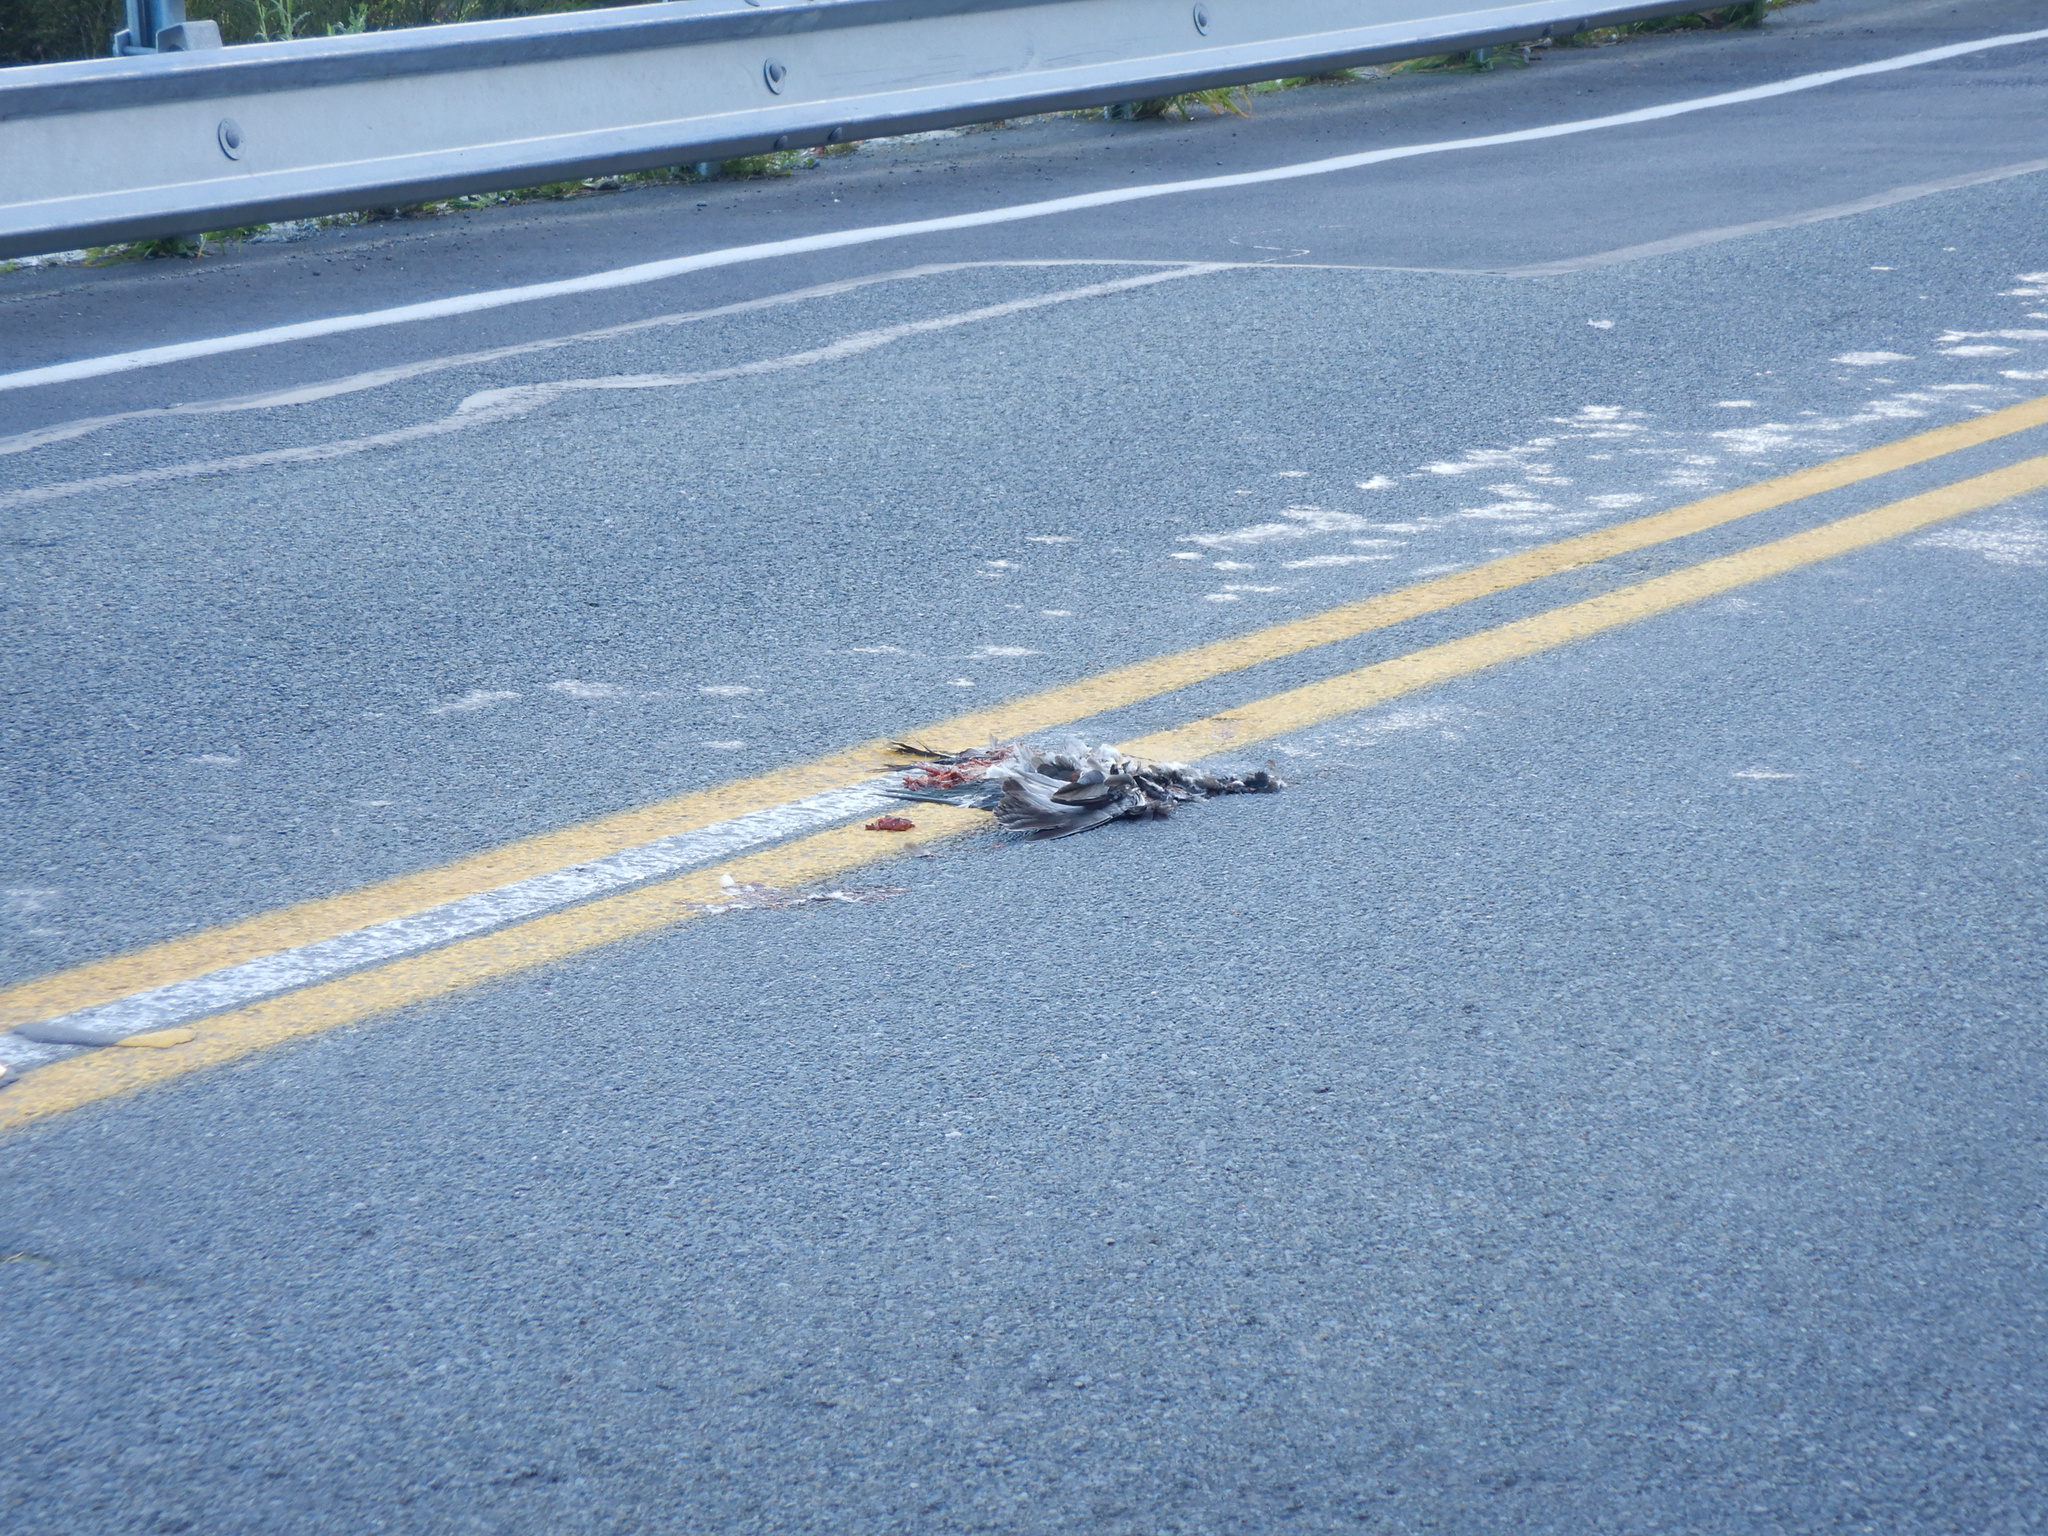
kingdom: Animalia
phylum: Chordata
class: Aves
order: Columbiformes
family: Columbidae
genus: Hemiphaga
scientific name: Hemiphaga novaeseelandiae
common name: New zealand pigeon
